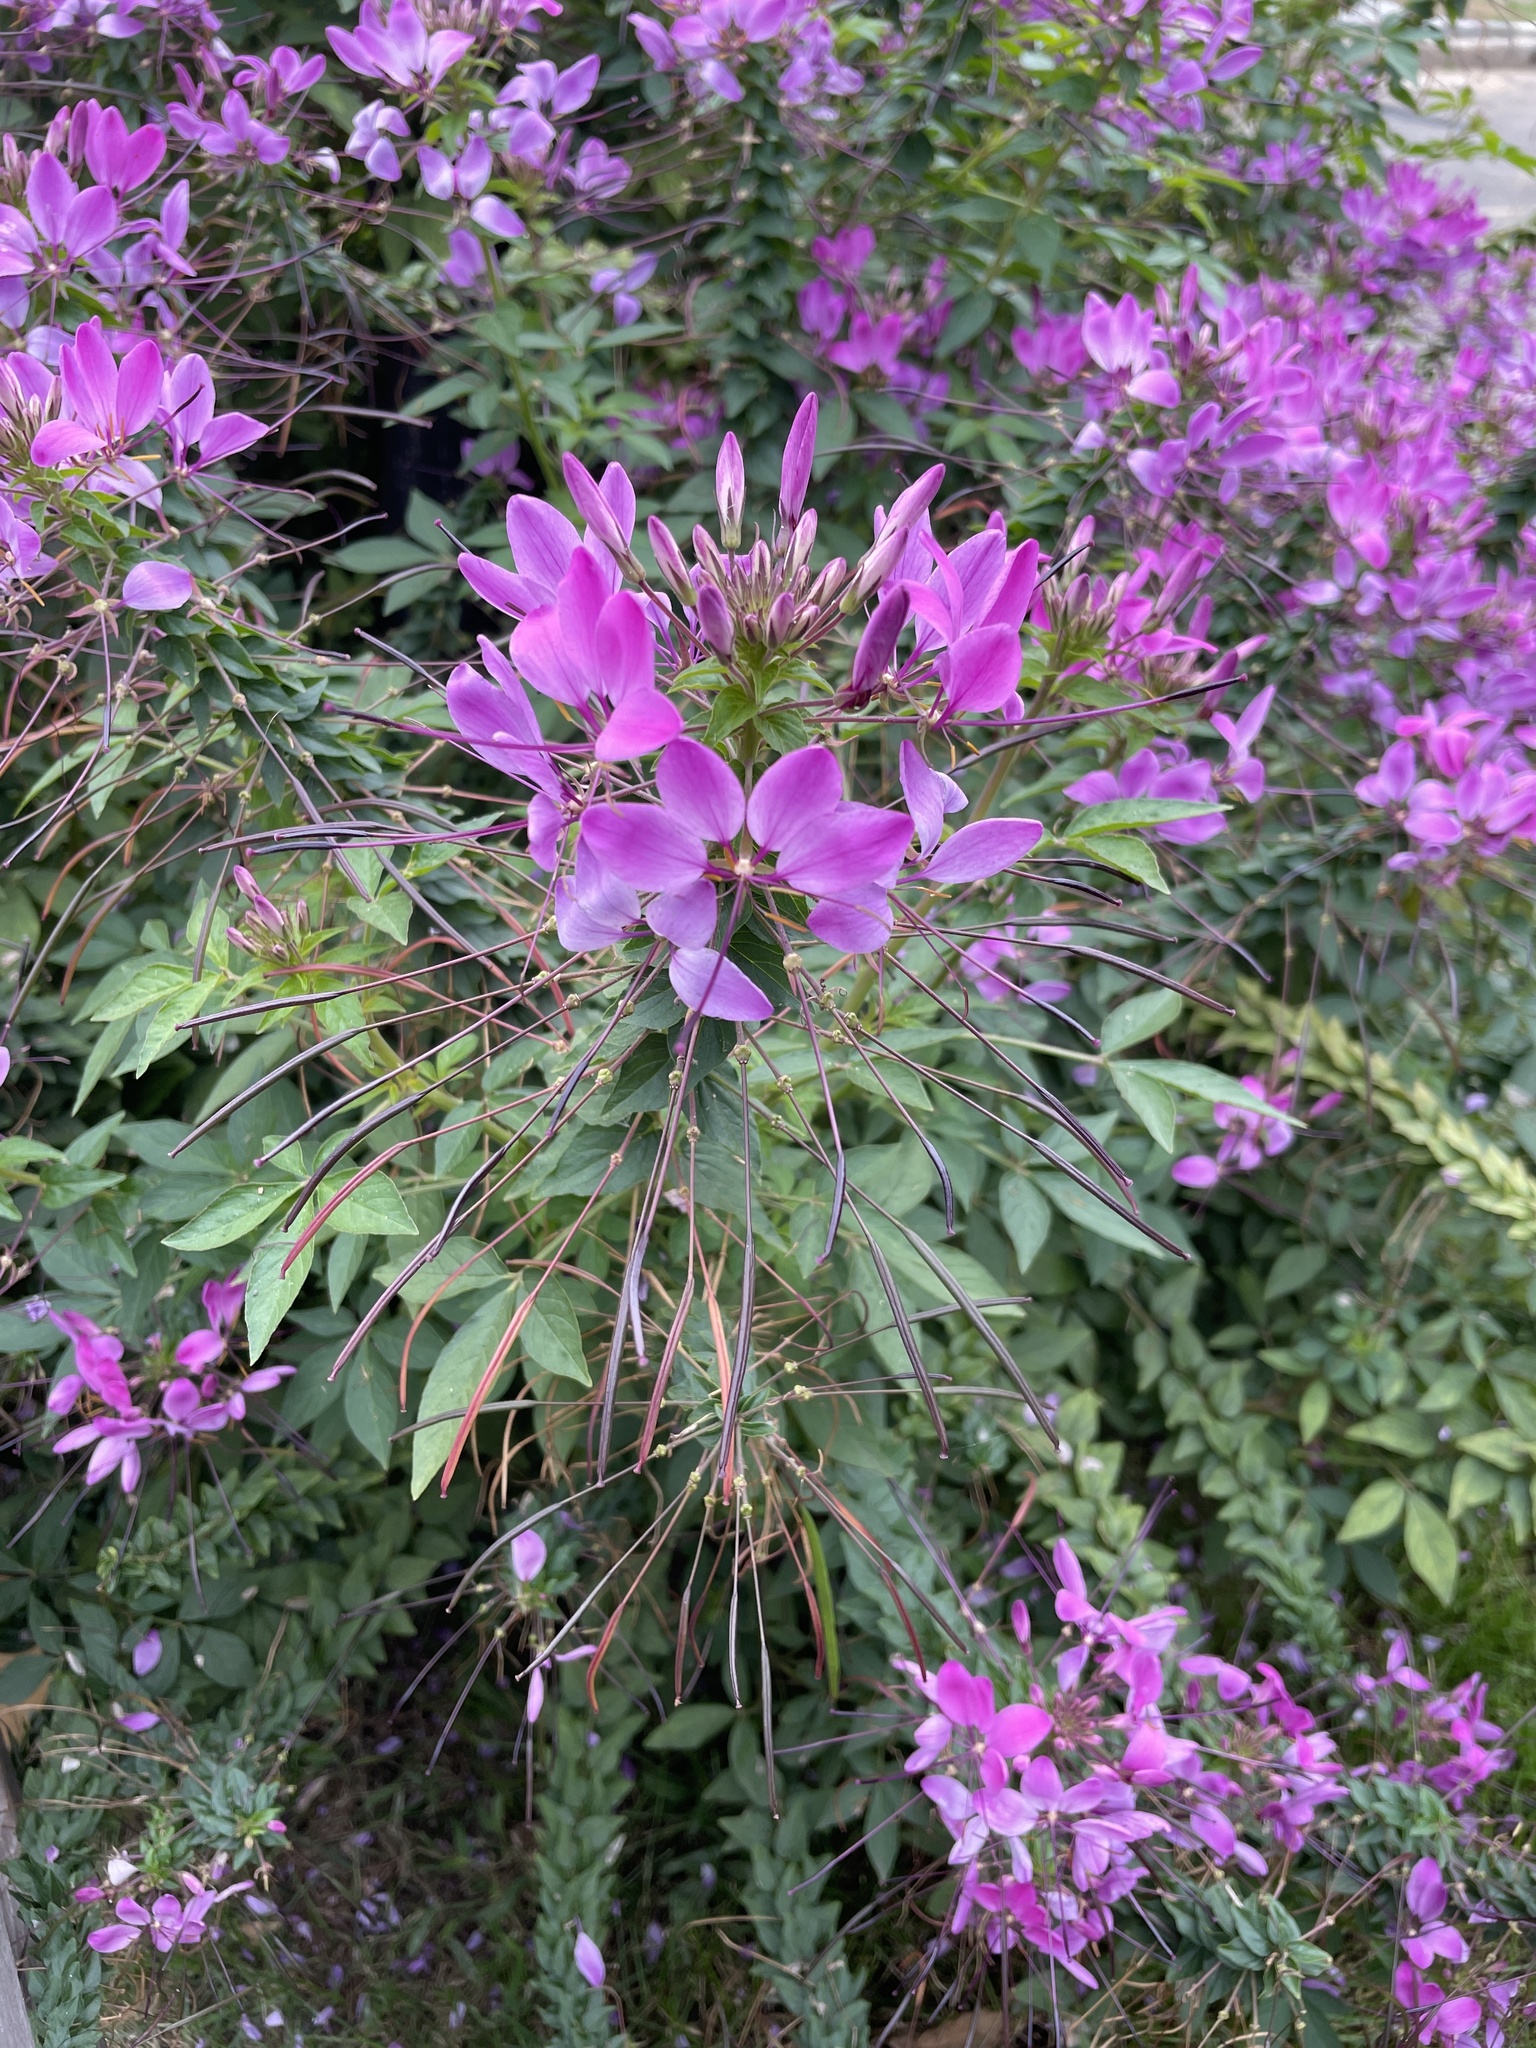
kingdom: Plantae
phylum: Tracheophyta
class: Magnoliopsida
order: Brassicales
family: Cleomaceae
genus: Tarenaya
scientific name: Tarenaya houtteana
